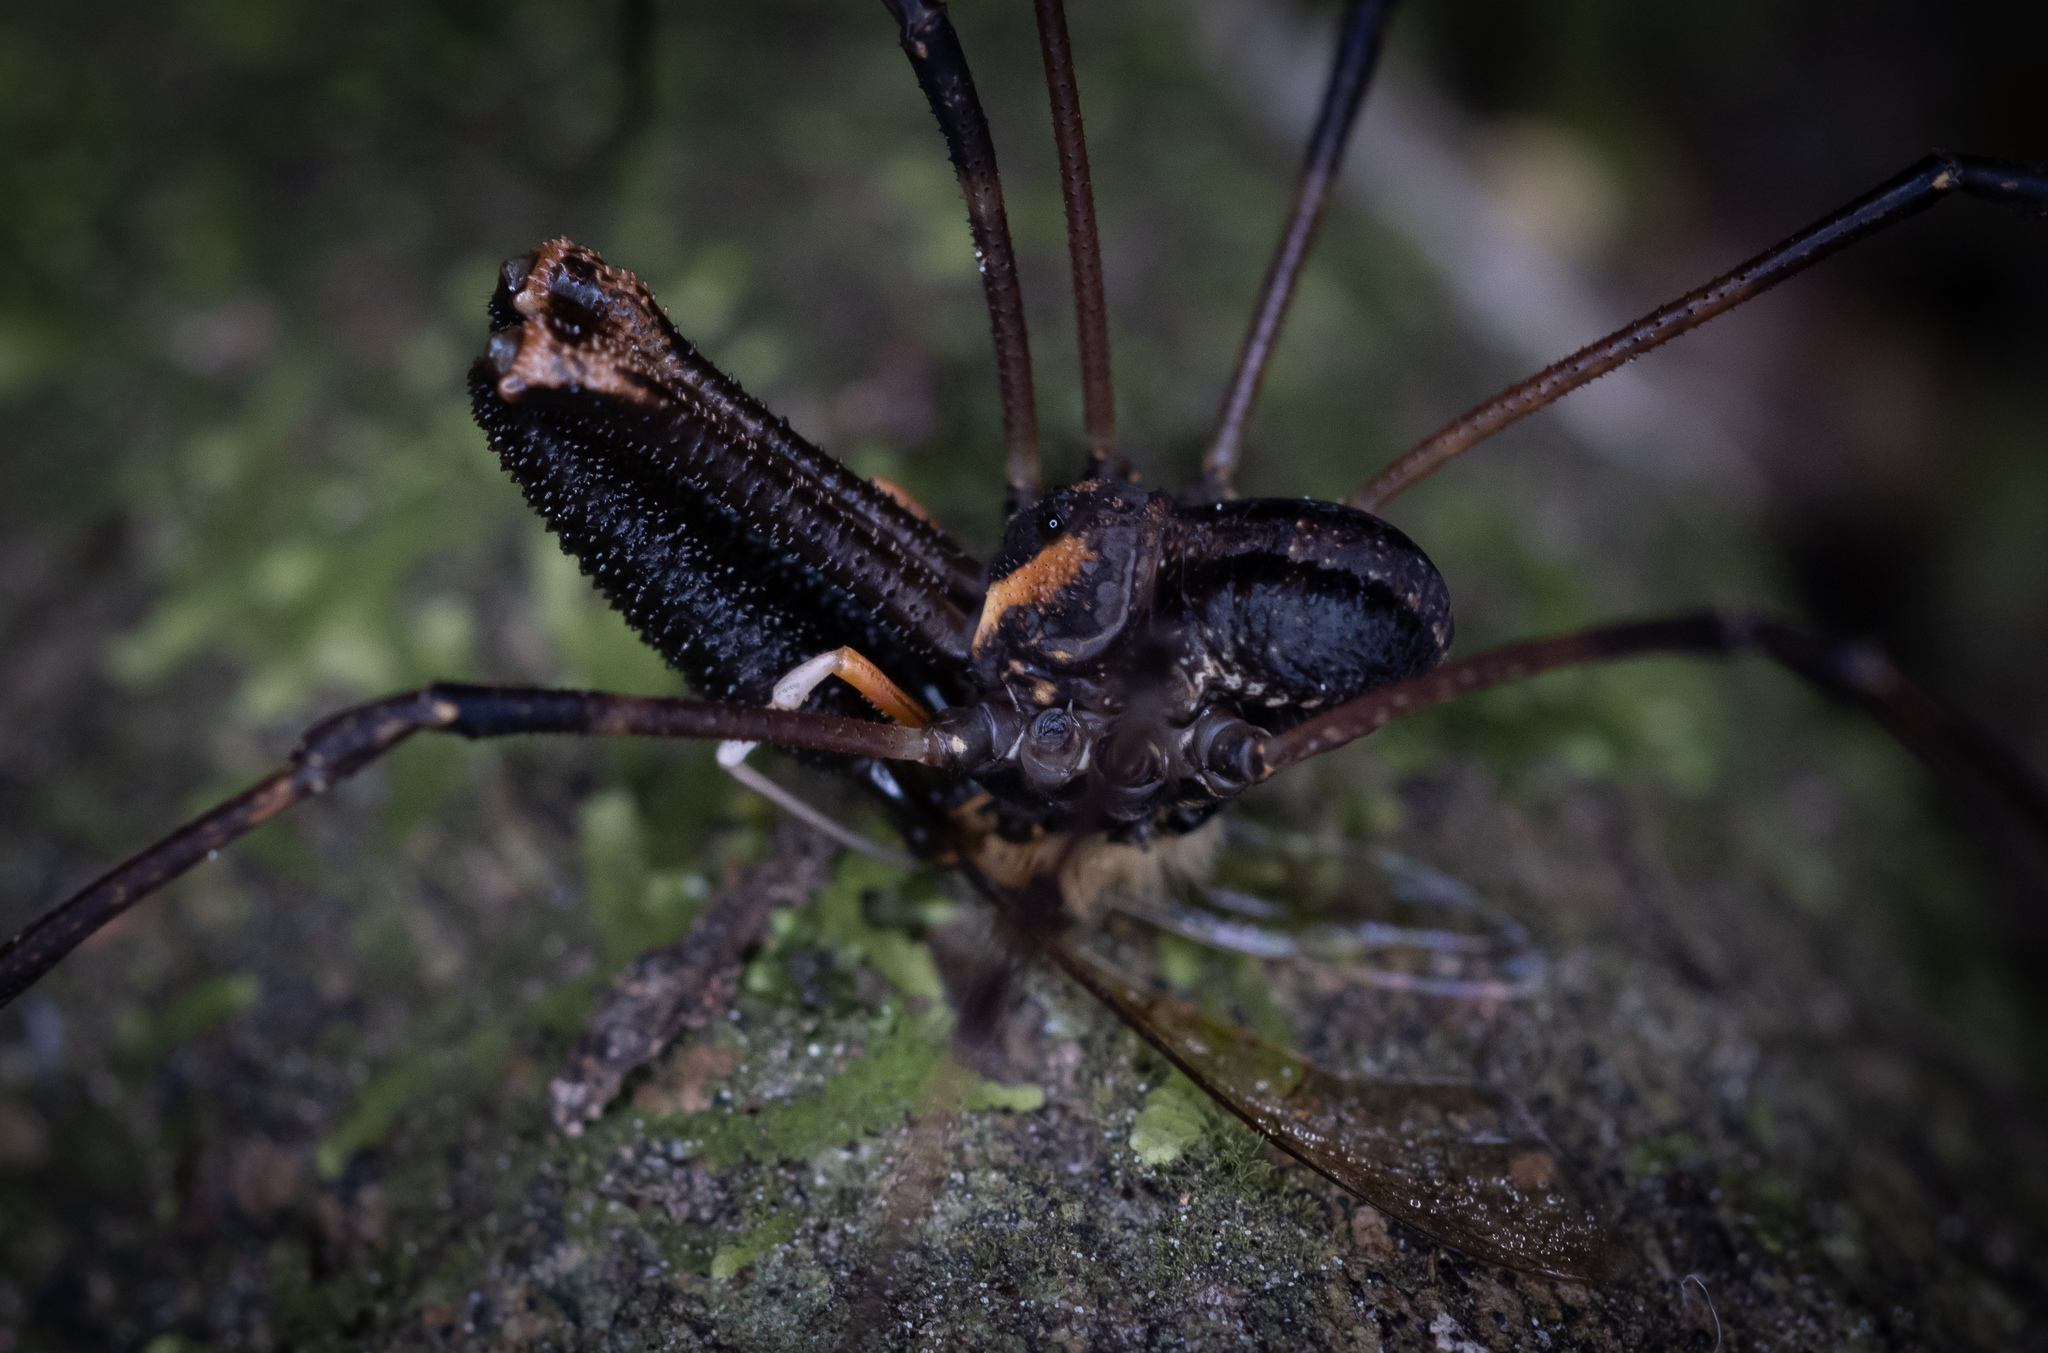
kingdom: Animalia
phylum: Arthropoda
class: Arachnida
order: Opiliones
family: Neopilionidae
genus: Forsteropsalis
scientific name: Forsteropsalis inconstans
